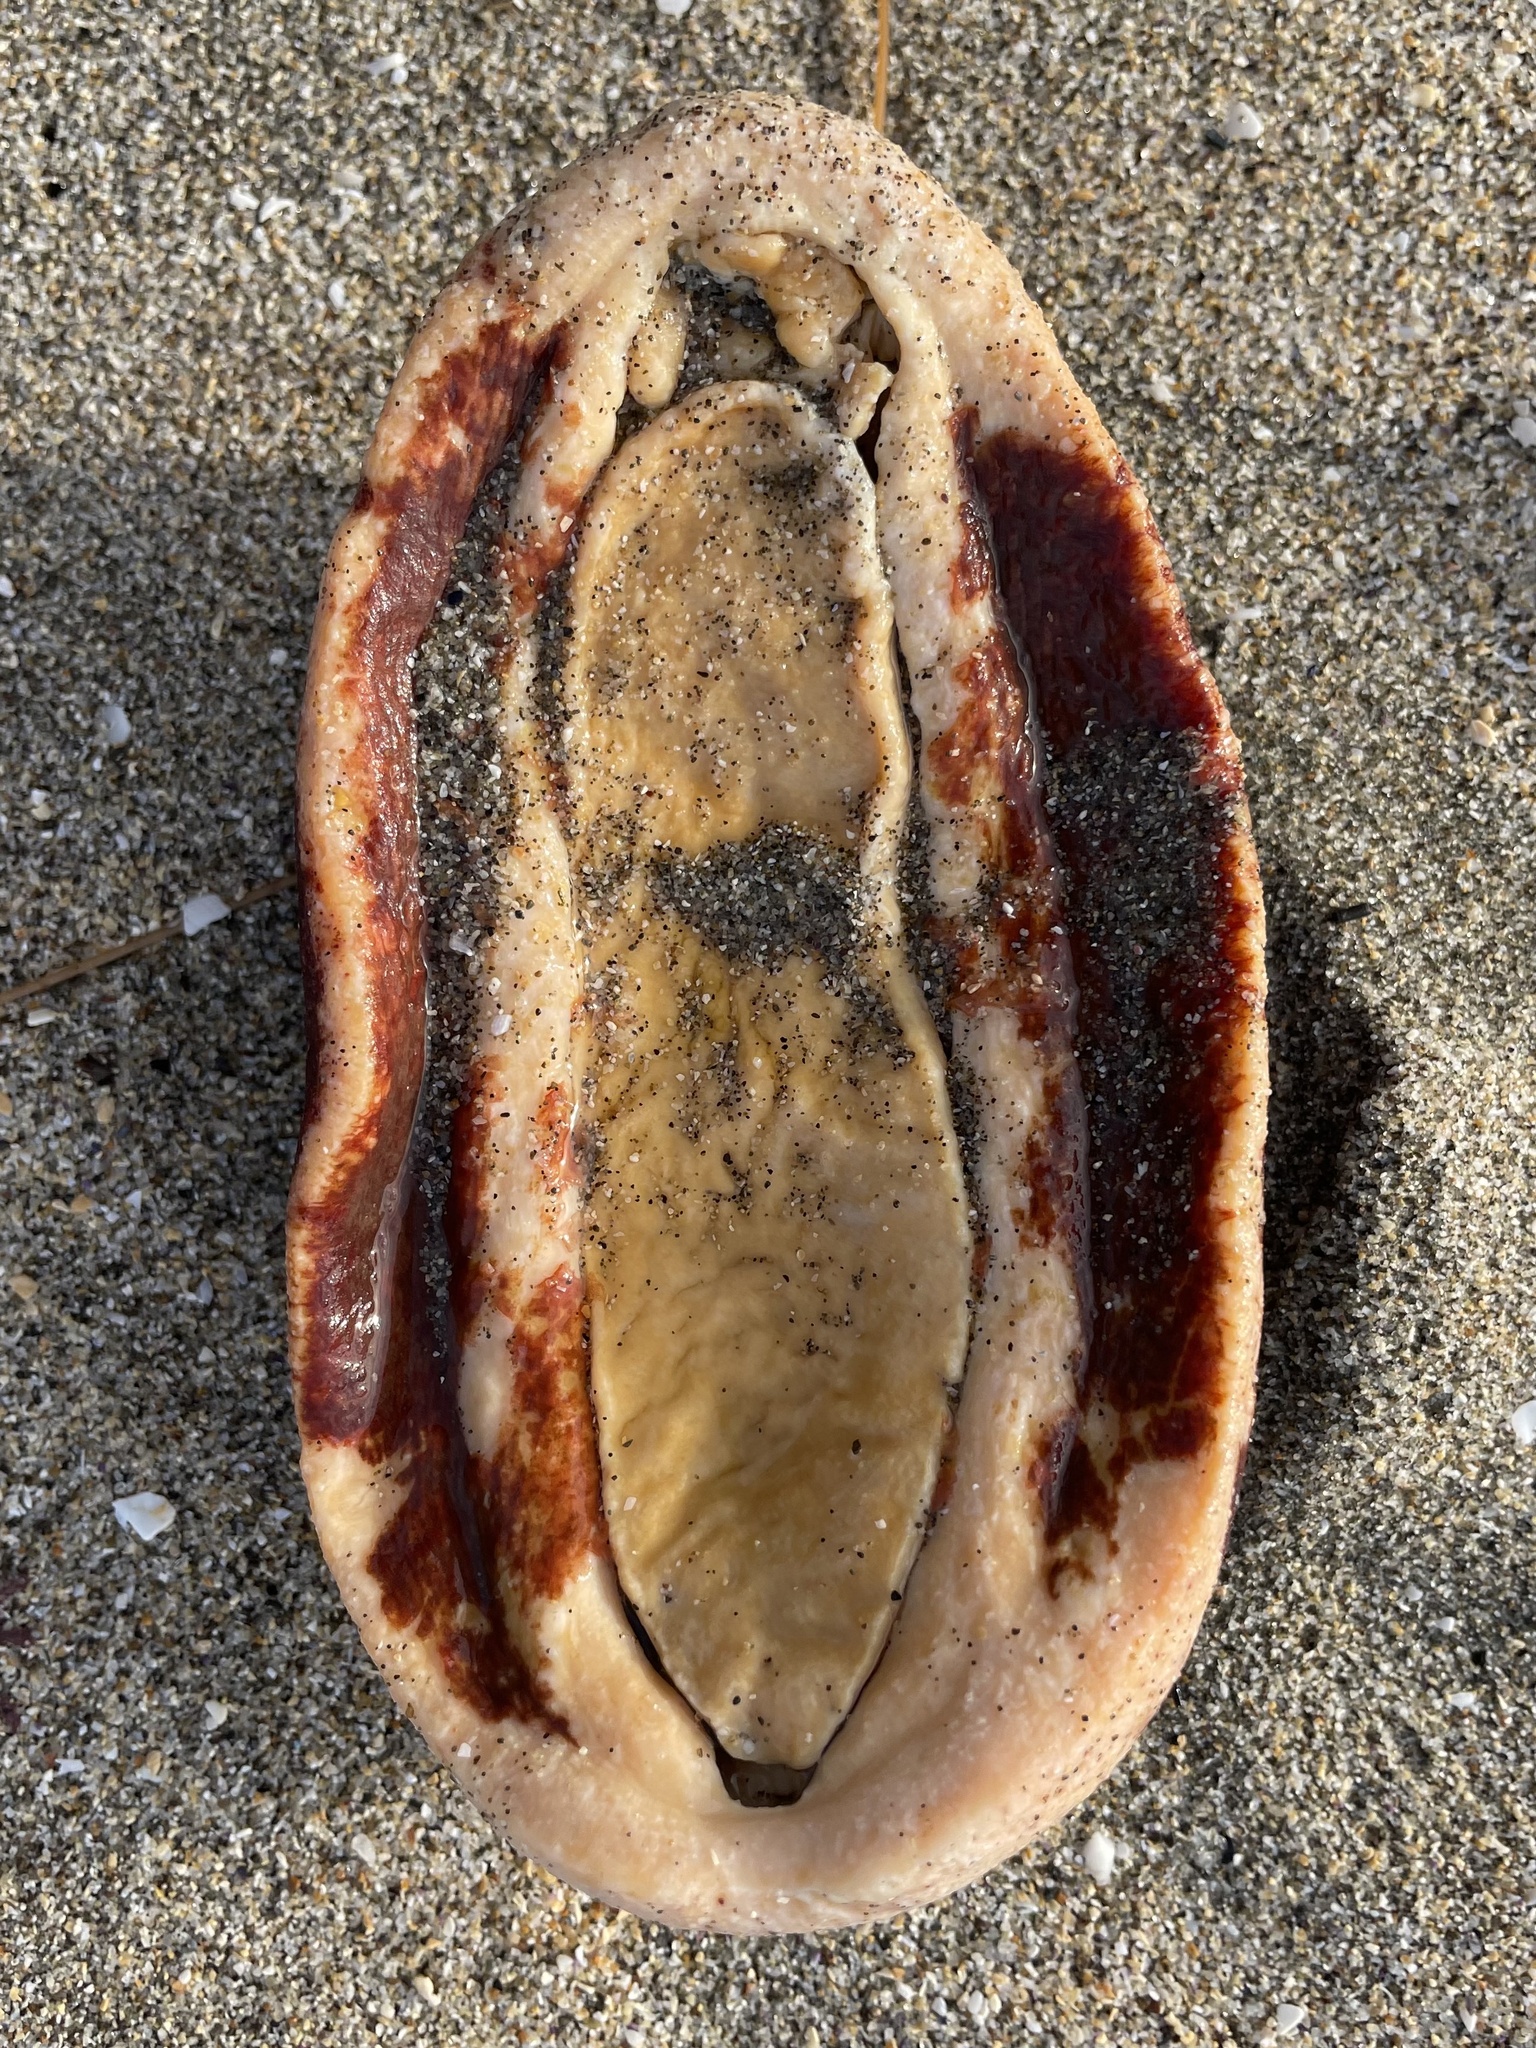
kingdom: Animalia
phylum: Mollusca
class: Polyplacophora
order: Chitonida
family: Acanthochitonidae
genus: Cryptochiton
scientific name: Cryptochiton stelleri
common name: Giant pacific chiton
